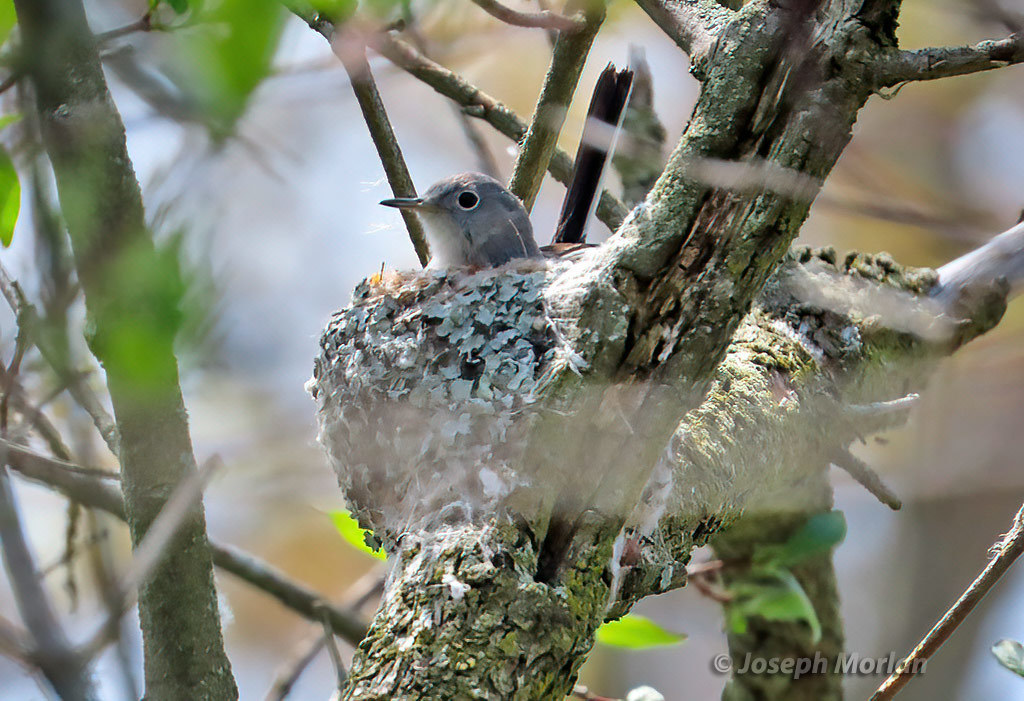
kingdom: Animalia
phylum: Chordata
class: Aves
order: Passeriformes
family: Polioptilidae
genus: Polioptila
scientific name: Polioptila caerulea
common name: Blue-gray gnatcatcher
